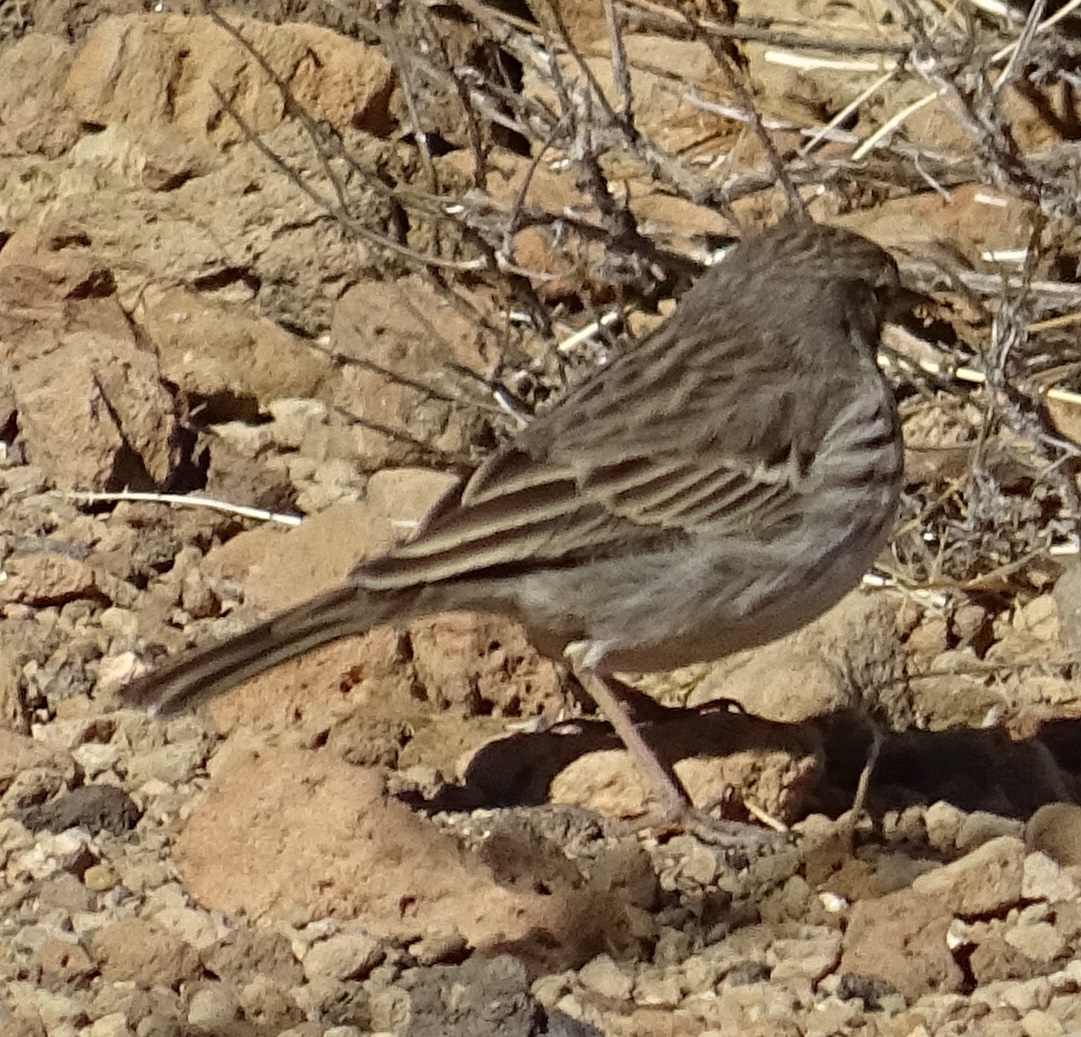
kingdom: Animalia
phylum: Chordata
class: Aves
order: Passeriformes
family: Motacillidae
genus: Anthus
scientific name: Anthus berthelotii
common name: Berthelot's pipit
